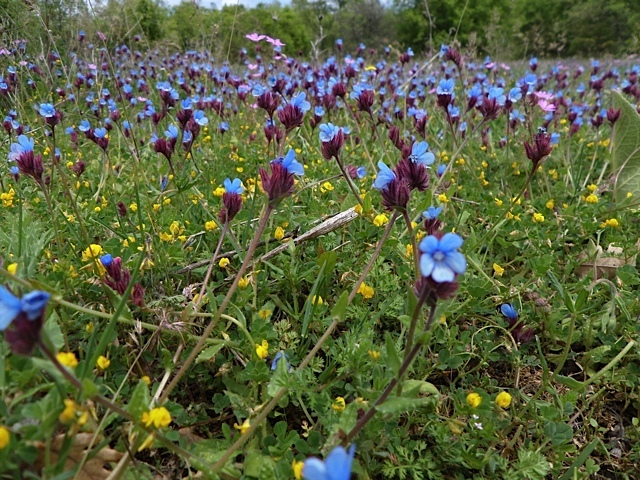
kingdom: Plantae
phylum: Tracheophyta
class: Magnoliopsida
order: Gentianales
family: Rubiaceae
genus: Sherardia
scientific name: Sherardia arvensis
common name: Field madder
